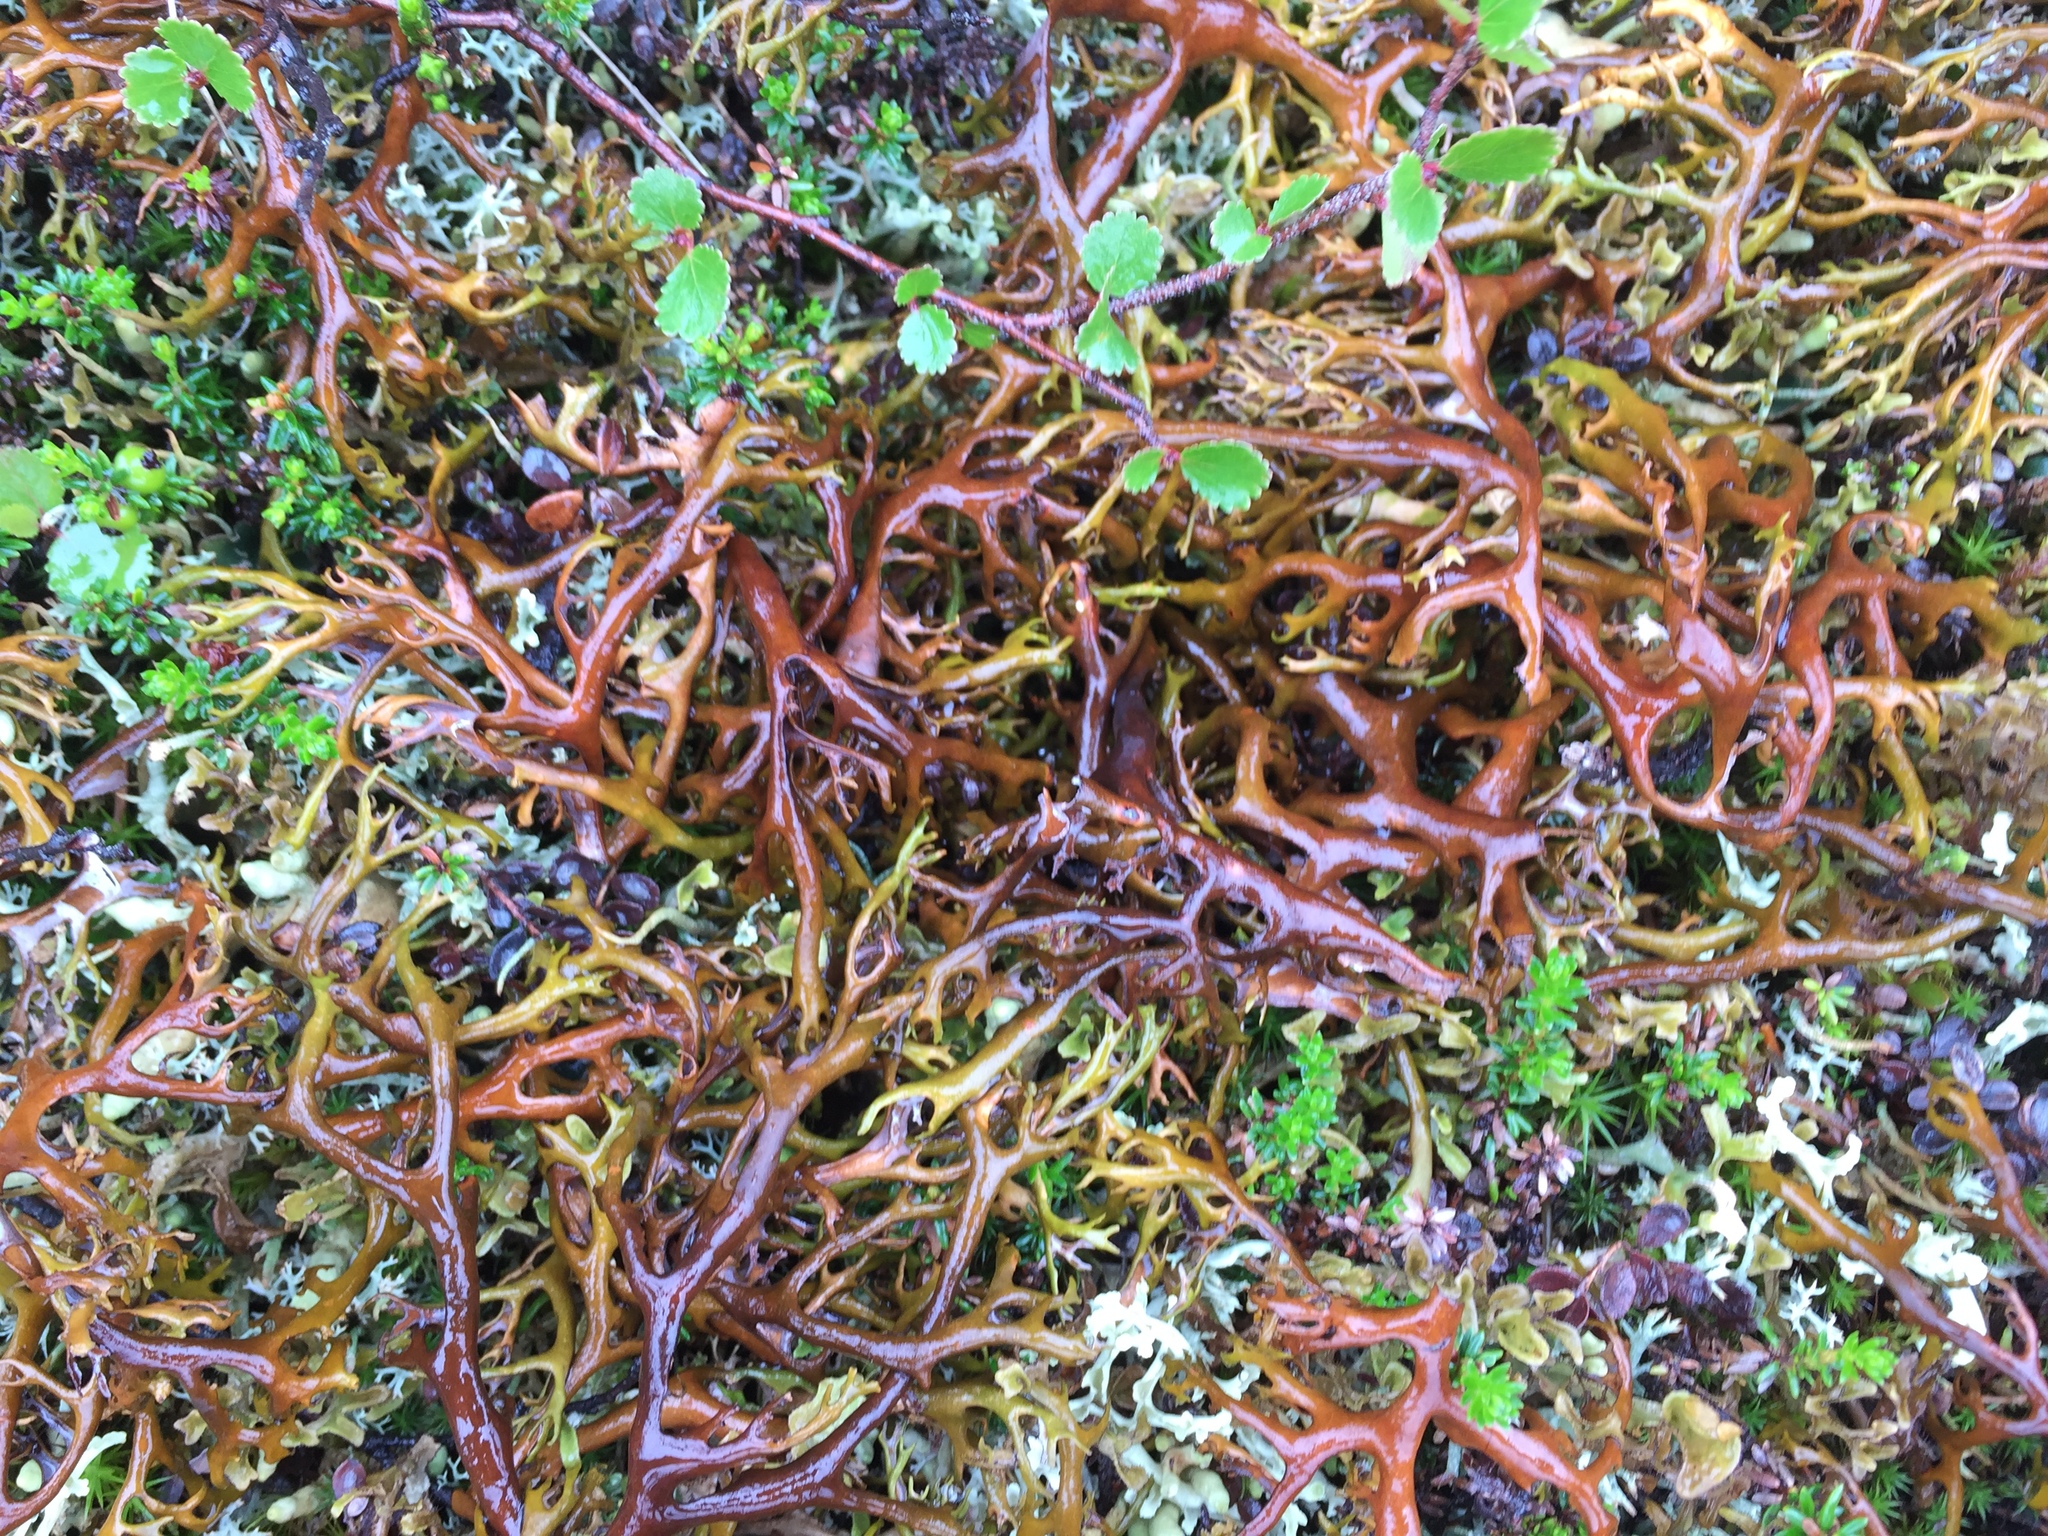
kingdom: Fungi
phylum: Ascomycota
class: Lecanoromycetes
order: Lecanorales
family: Parmeliaceae
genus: Nephromopsis
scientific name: Nephromopsis richardsonii
